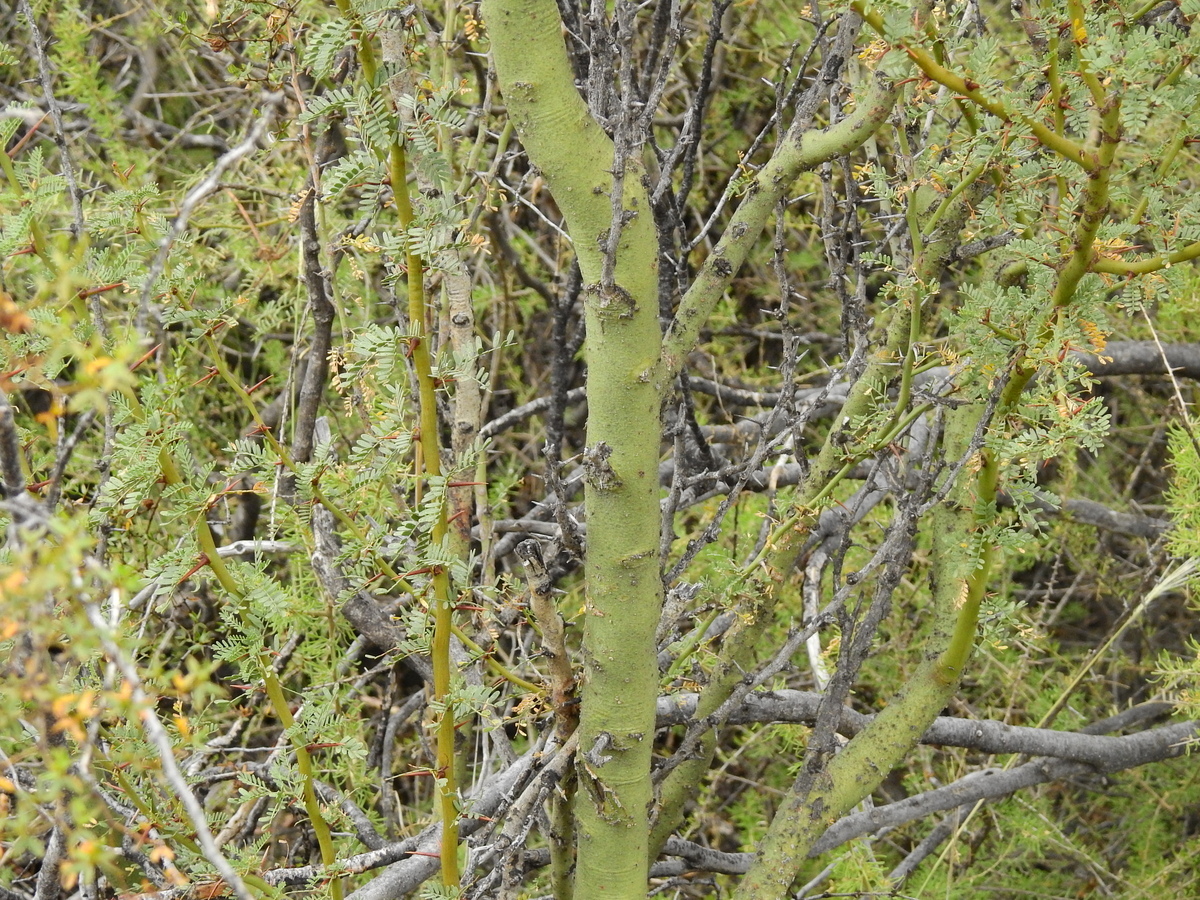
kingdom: Plantae
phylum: Tracheophyta
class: Magnoliopsida
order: Fabales
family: Fabaceae
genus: Parkinsonia
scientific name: Parkinsonia praecox
